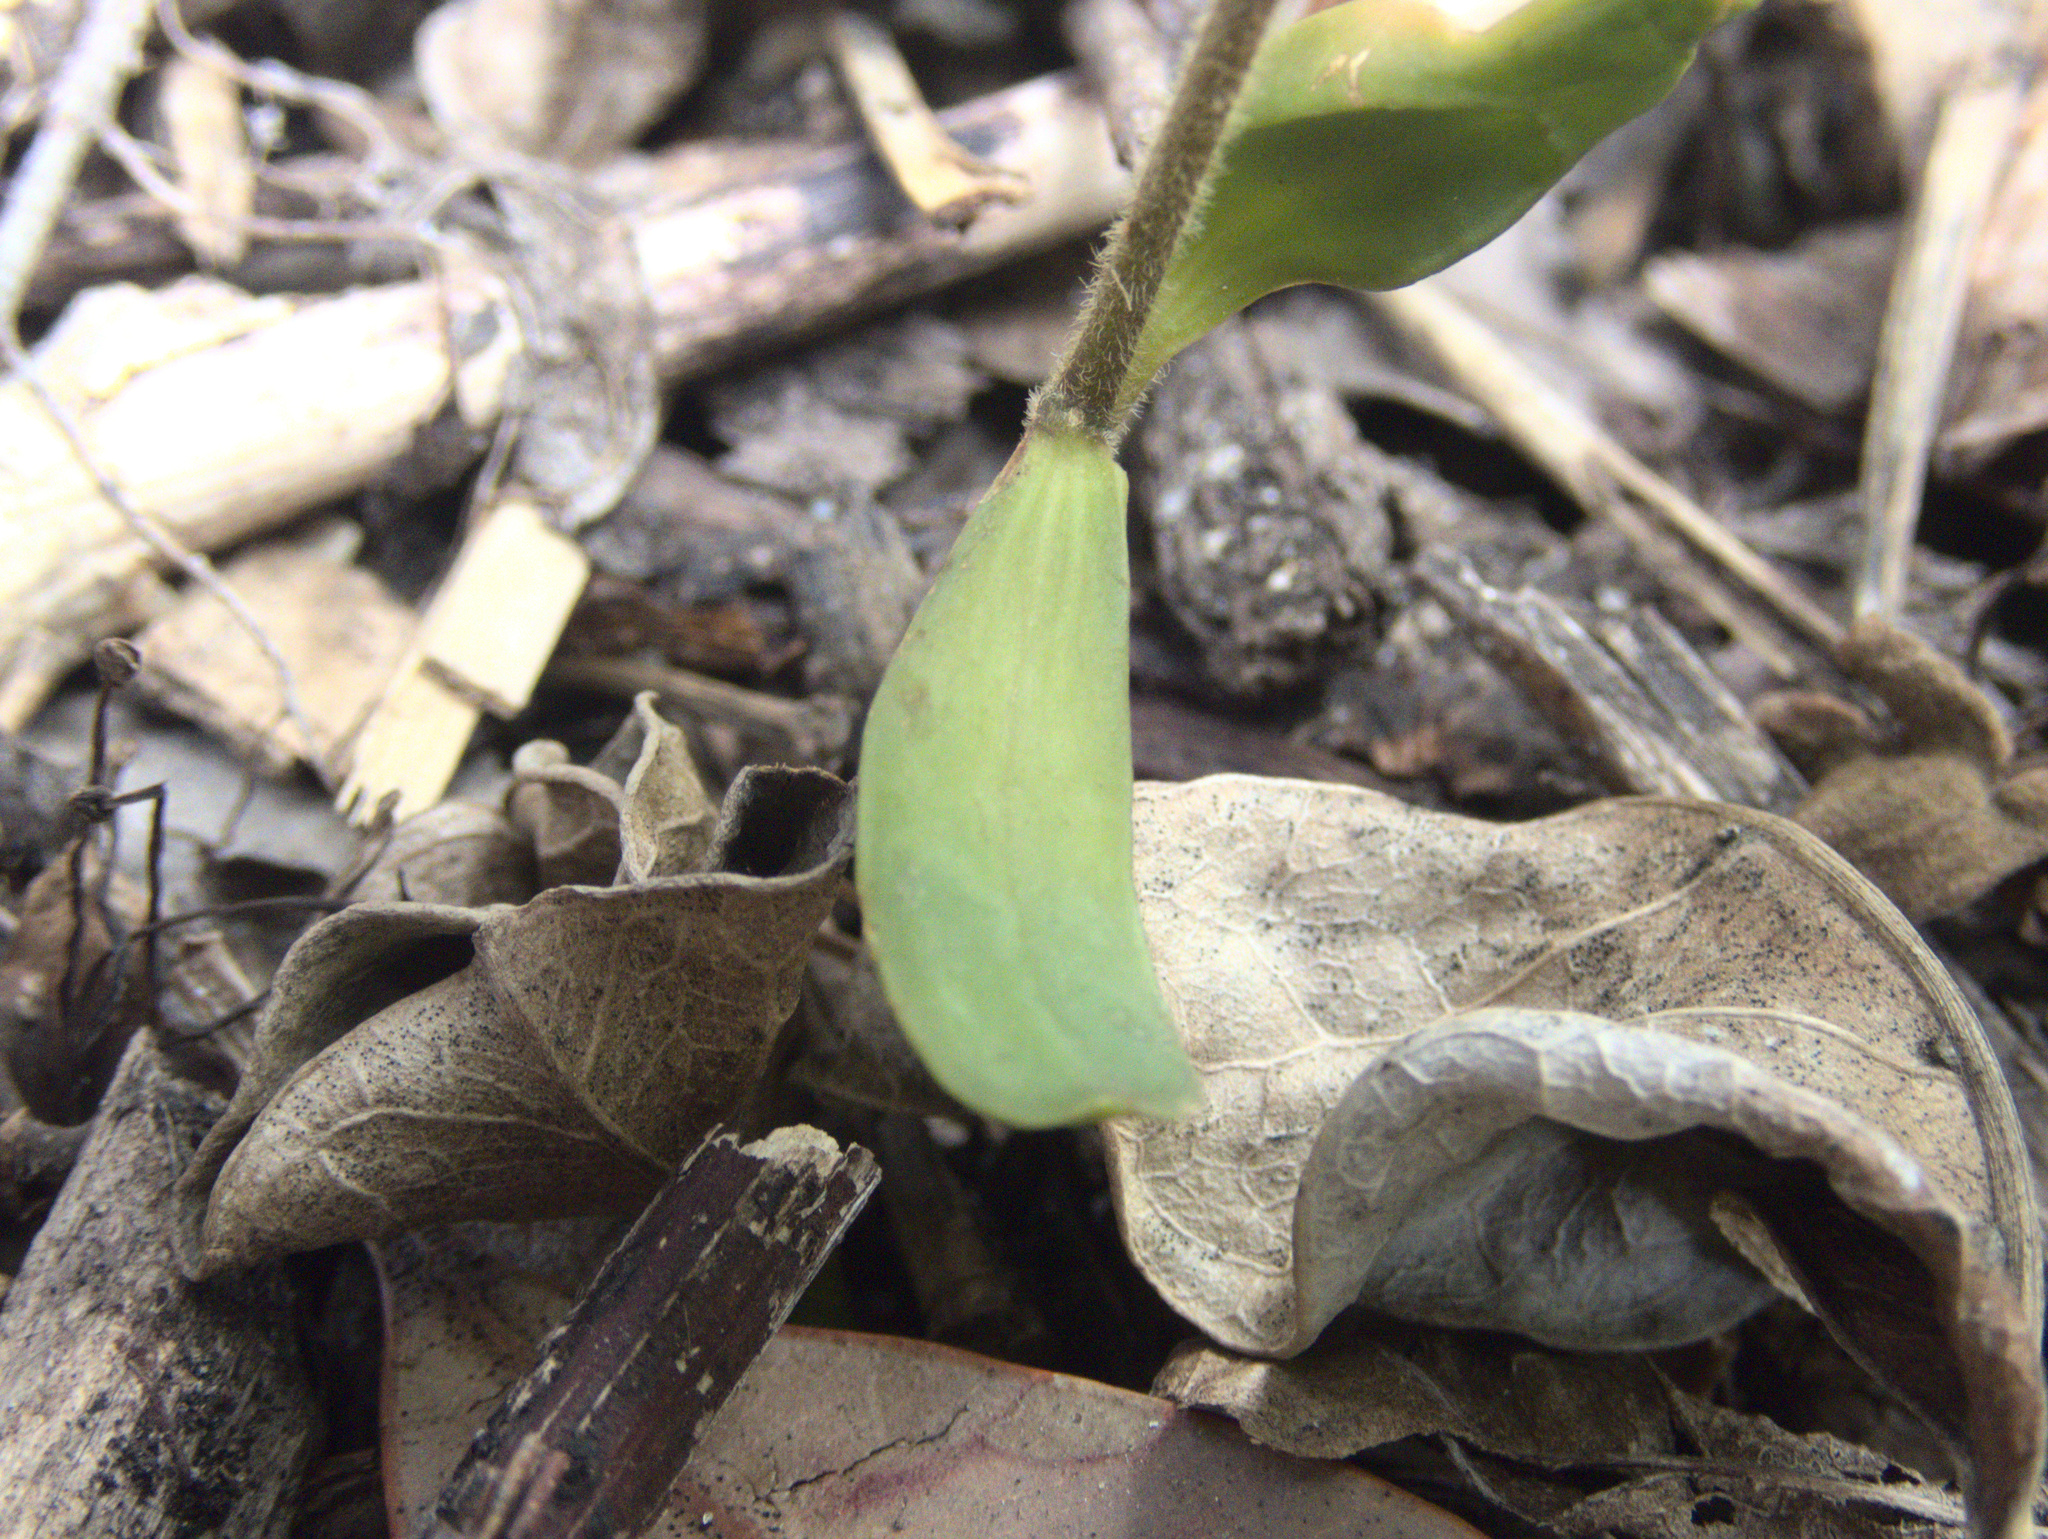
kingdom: Plantae
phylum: Tracheophyta
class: Magnoliopsida
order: Sapindales
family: Sapindaceae
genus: Alectryon
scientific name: Alectryon excelsus
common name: Three kings titoki
